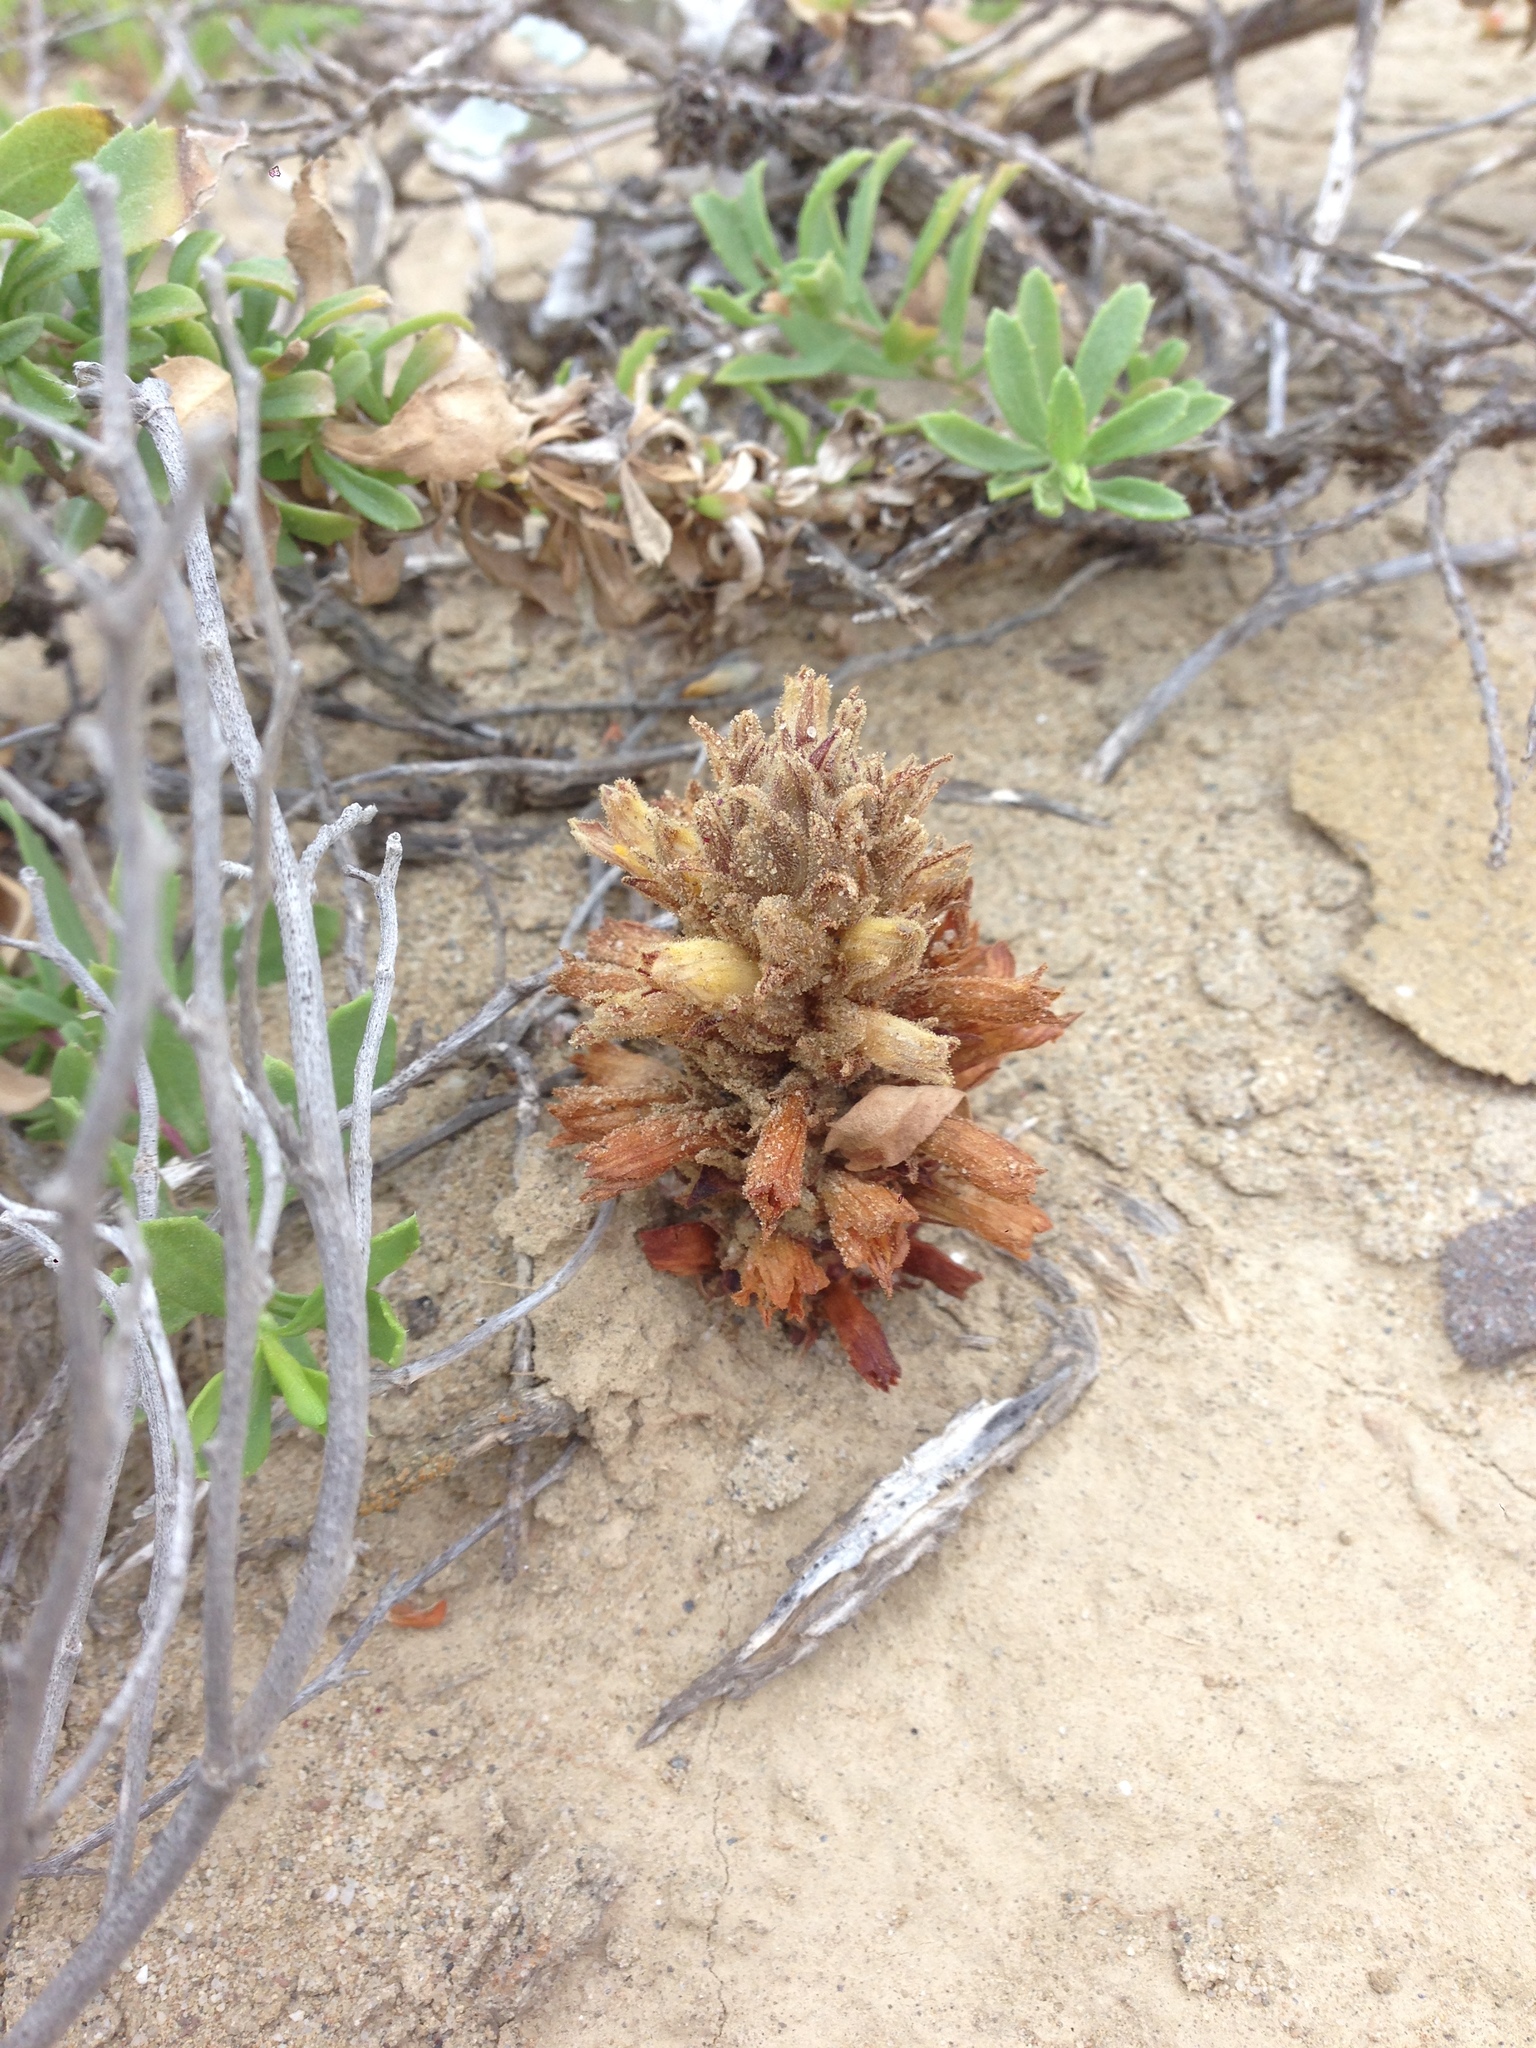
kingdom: Plantae
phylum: Tracheophyta
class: Magnoliopsida
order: Lamiales
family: Orobanchaceae
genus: Aphyllon
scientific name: Aphyllon parishii
